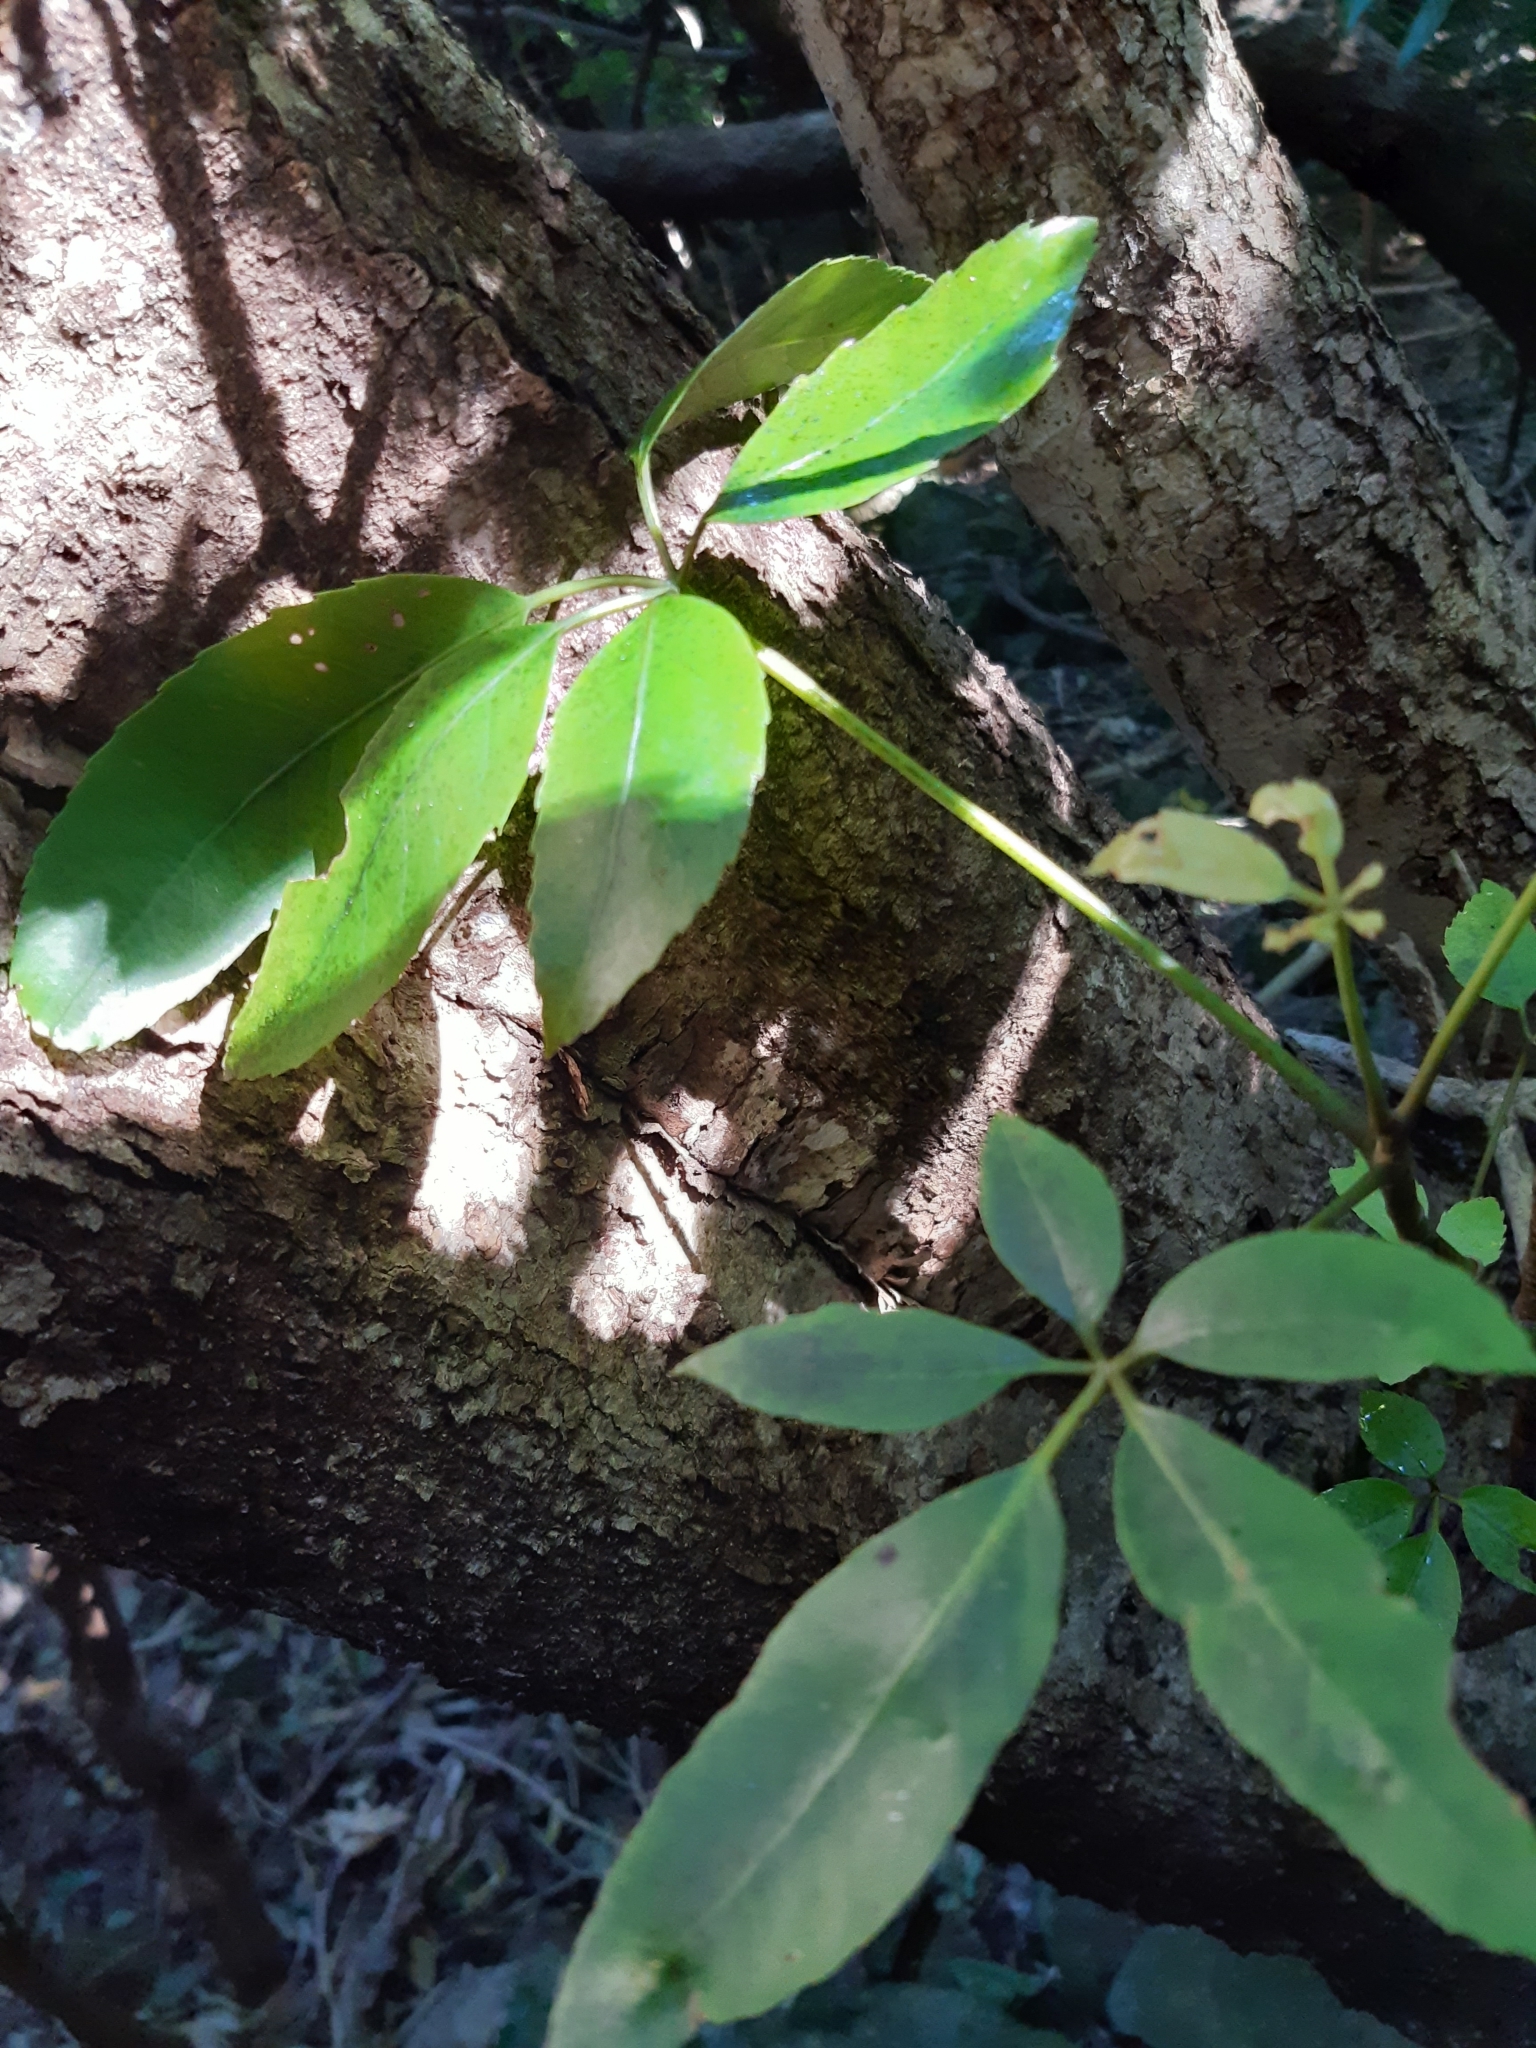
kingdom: Plantae
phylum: Tracheophyta
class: Magnoliopsida
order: Apiales
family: Araliaceae
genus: Neopanax
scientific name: Neopanax arboreus
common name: Five-fingers
